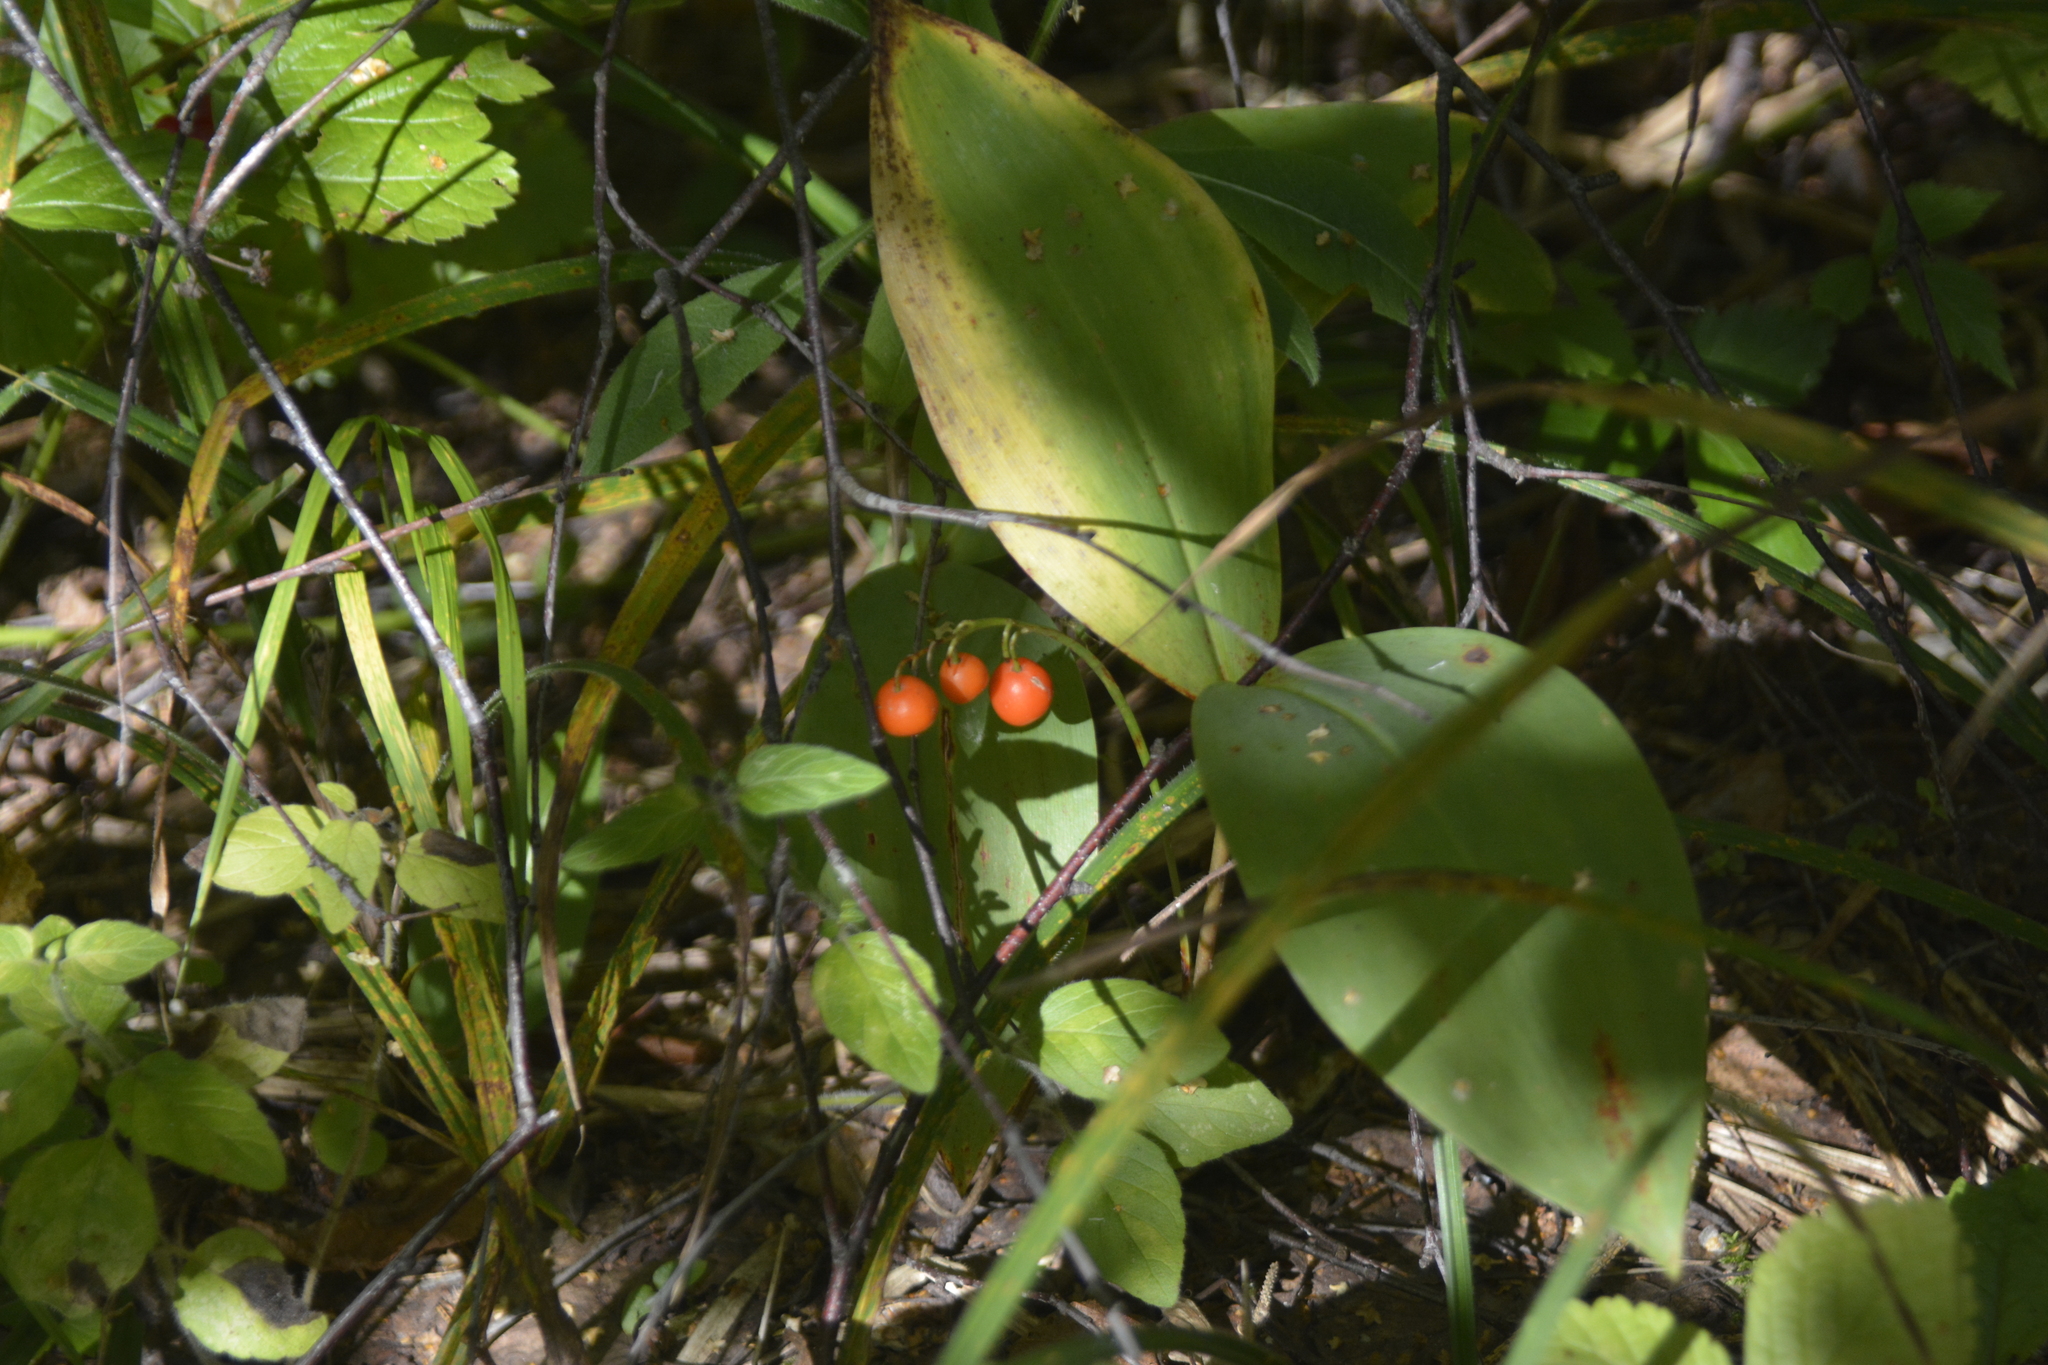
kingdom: Plantae
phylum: Tracheophyta
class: Liliopsida
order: Asparagales
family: Asparagaceae
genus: Convallaria
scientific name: Convallaria majalis
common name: Lily-of-the-valley
